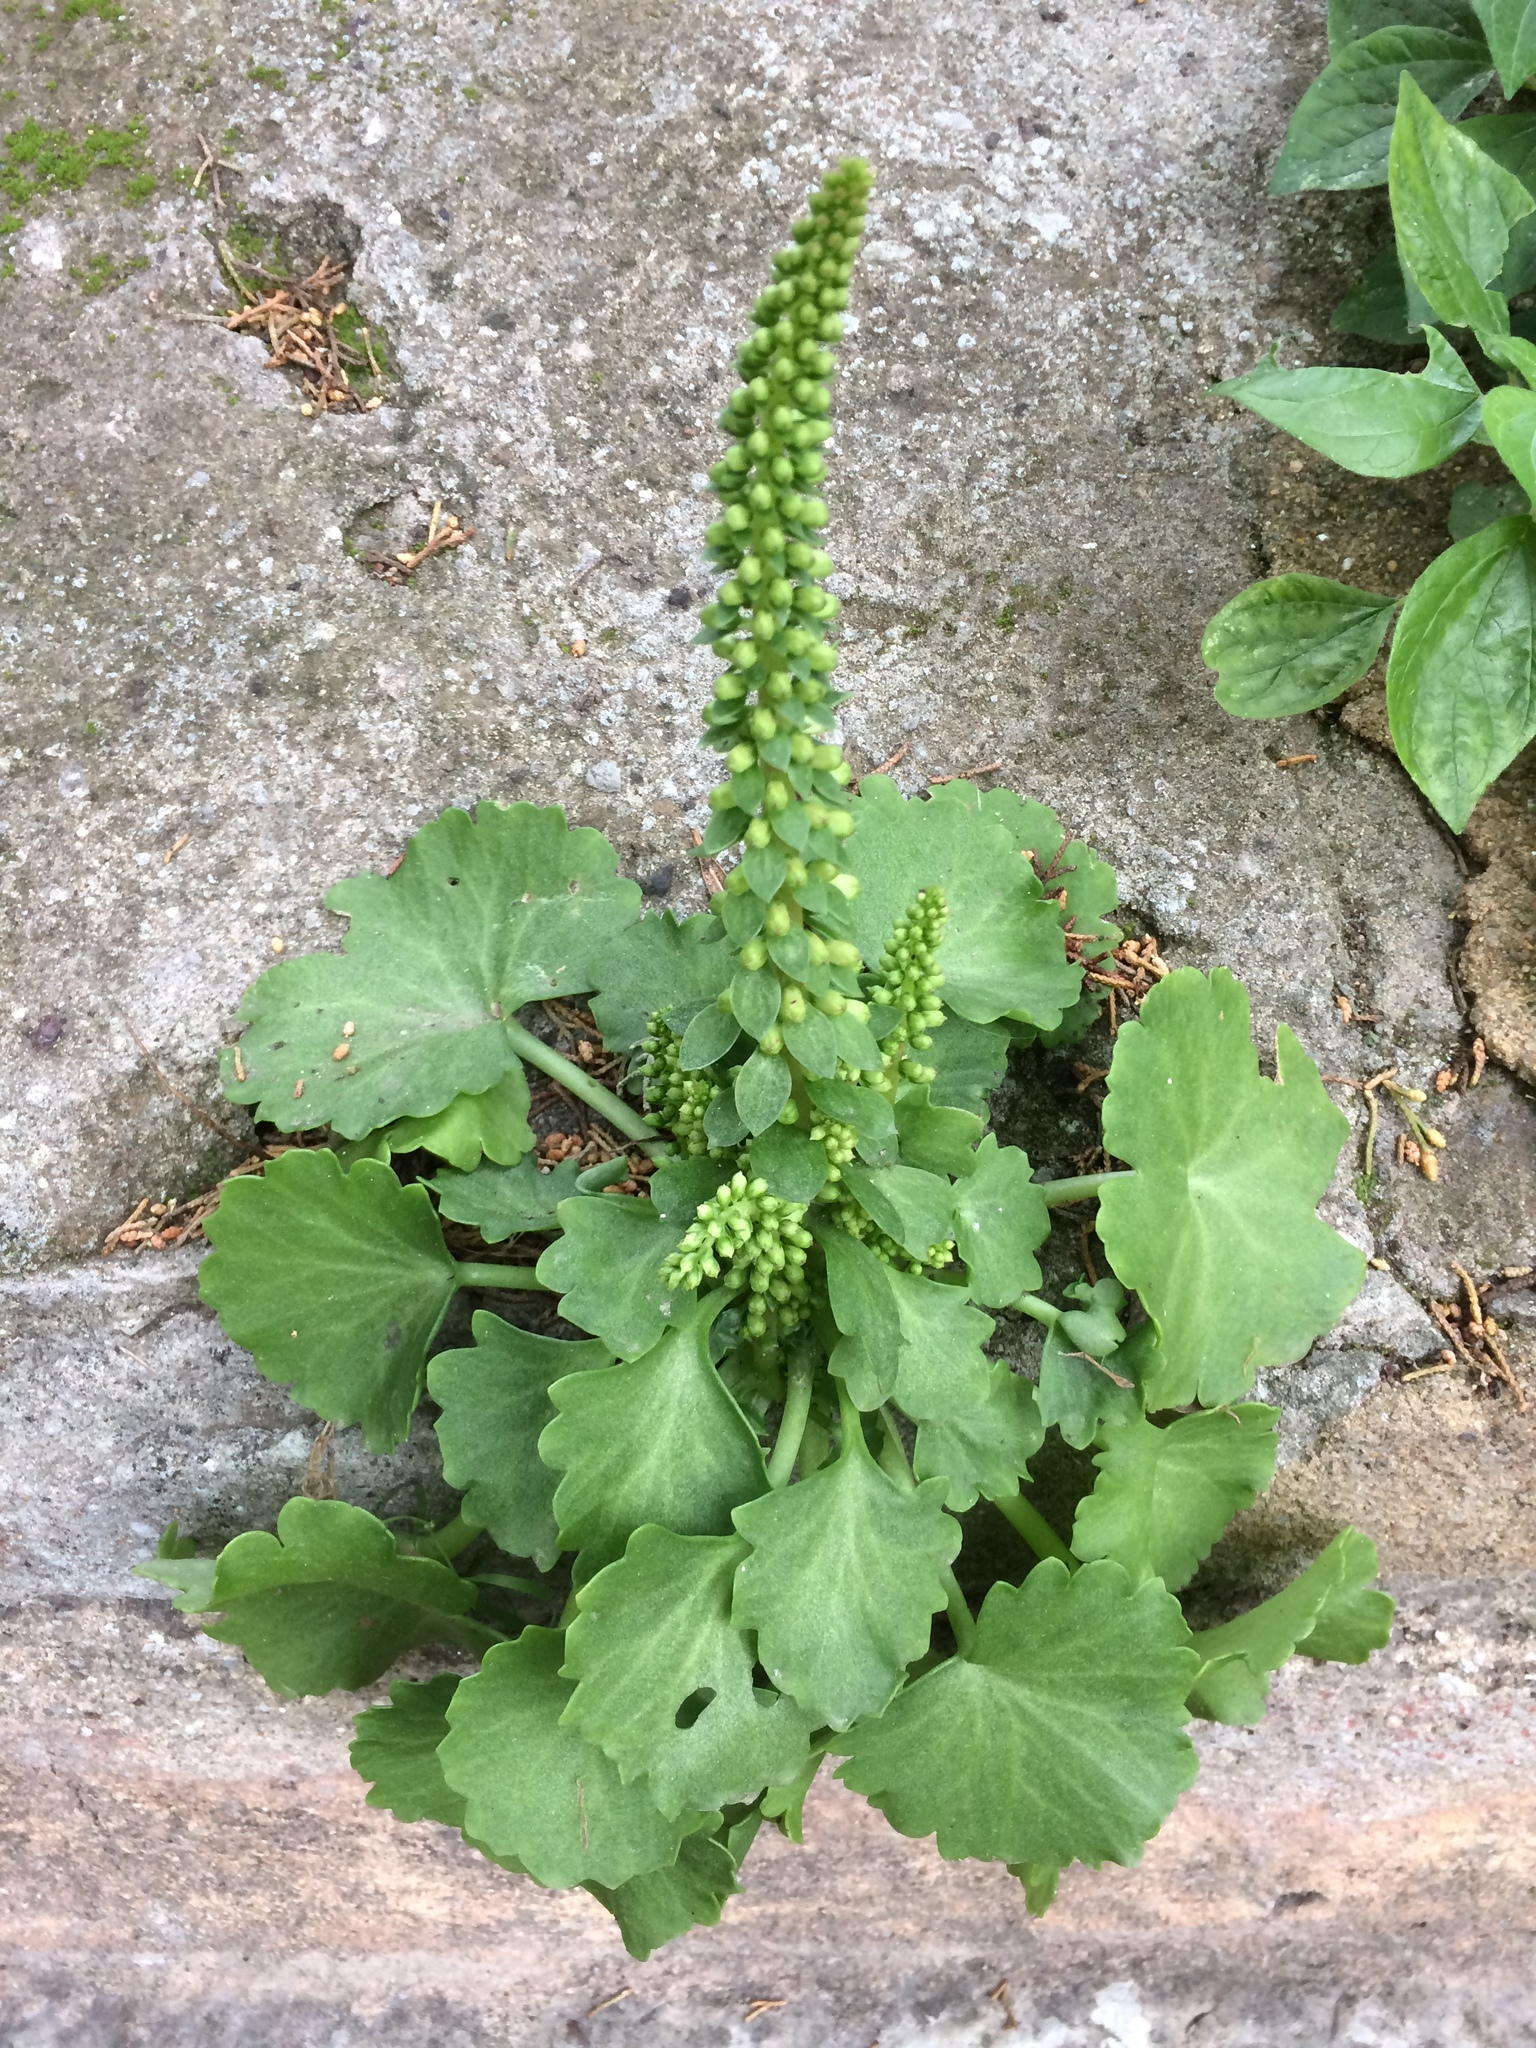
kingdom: Plantae
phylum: Tracheophyta
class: Magnoliopsida
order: Saxifragales
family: Crassulaceae
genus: Umbilicus
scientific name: Umbilicus rupestris
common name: Navelwort
